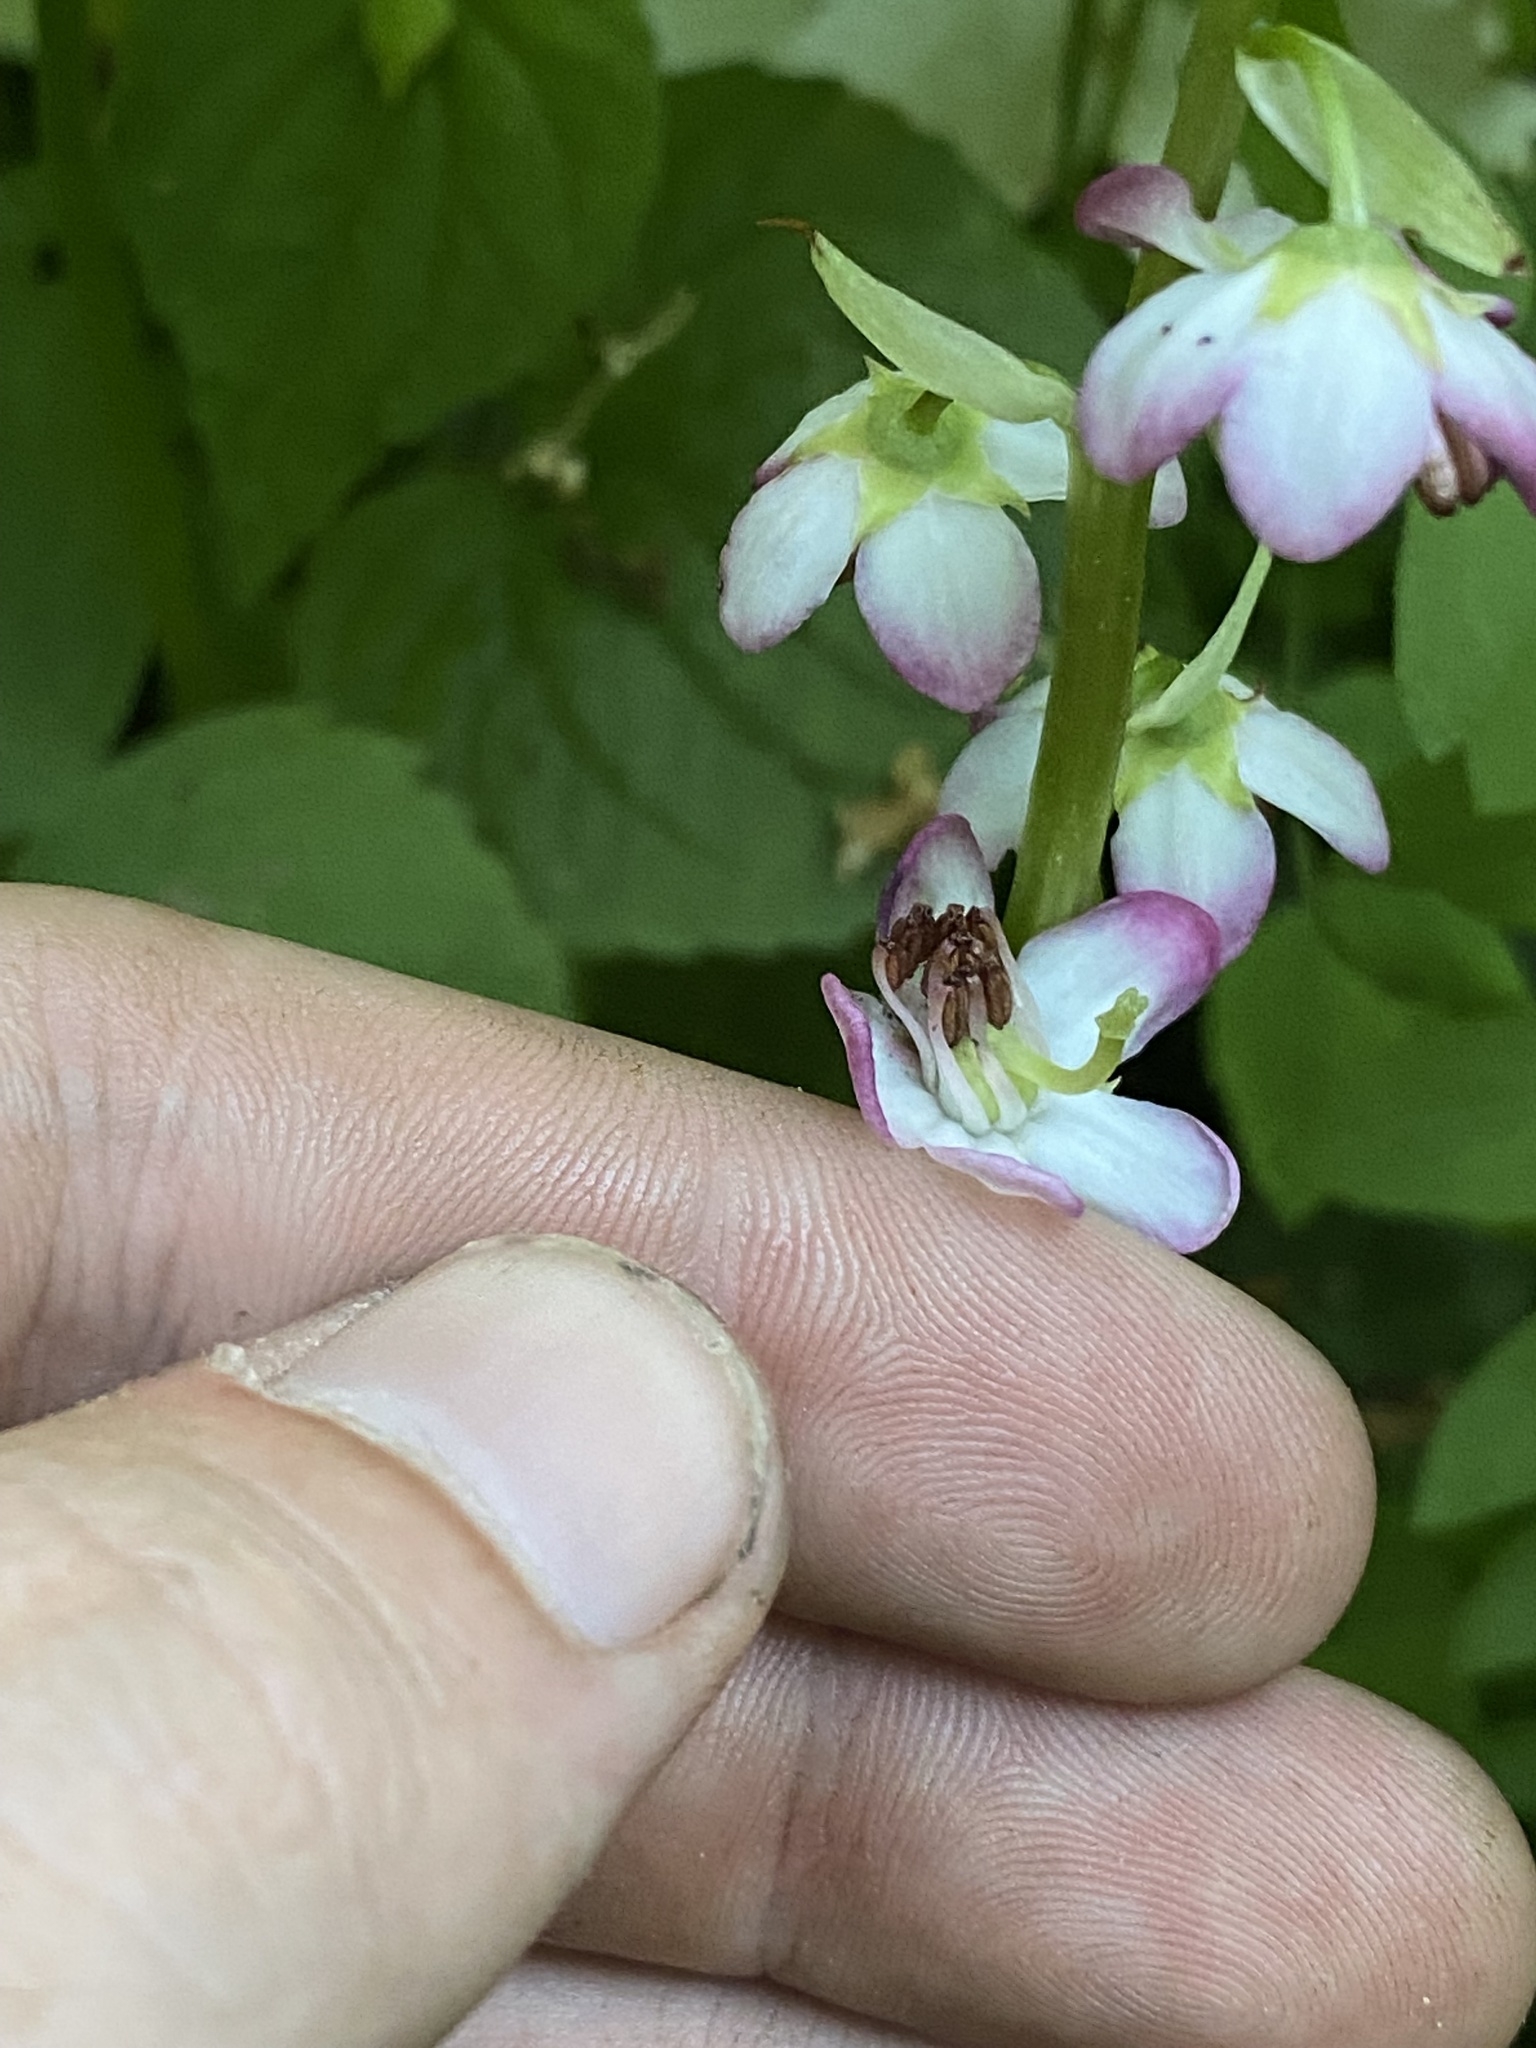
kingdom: Plantae
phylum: Tracheophyta
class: Magnoliopsida
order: Ericales
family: Ericaceae
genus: Pyrola
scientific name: Pyrola asarifolia
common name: Bog wintergreen
